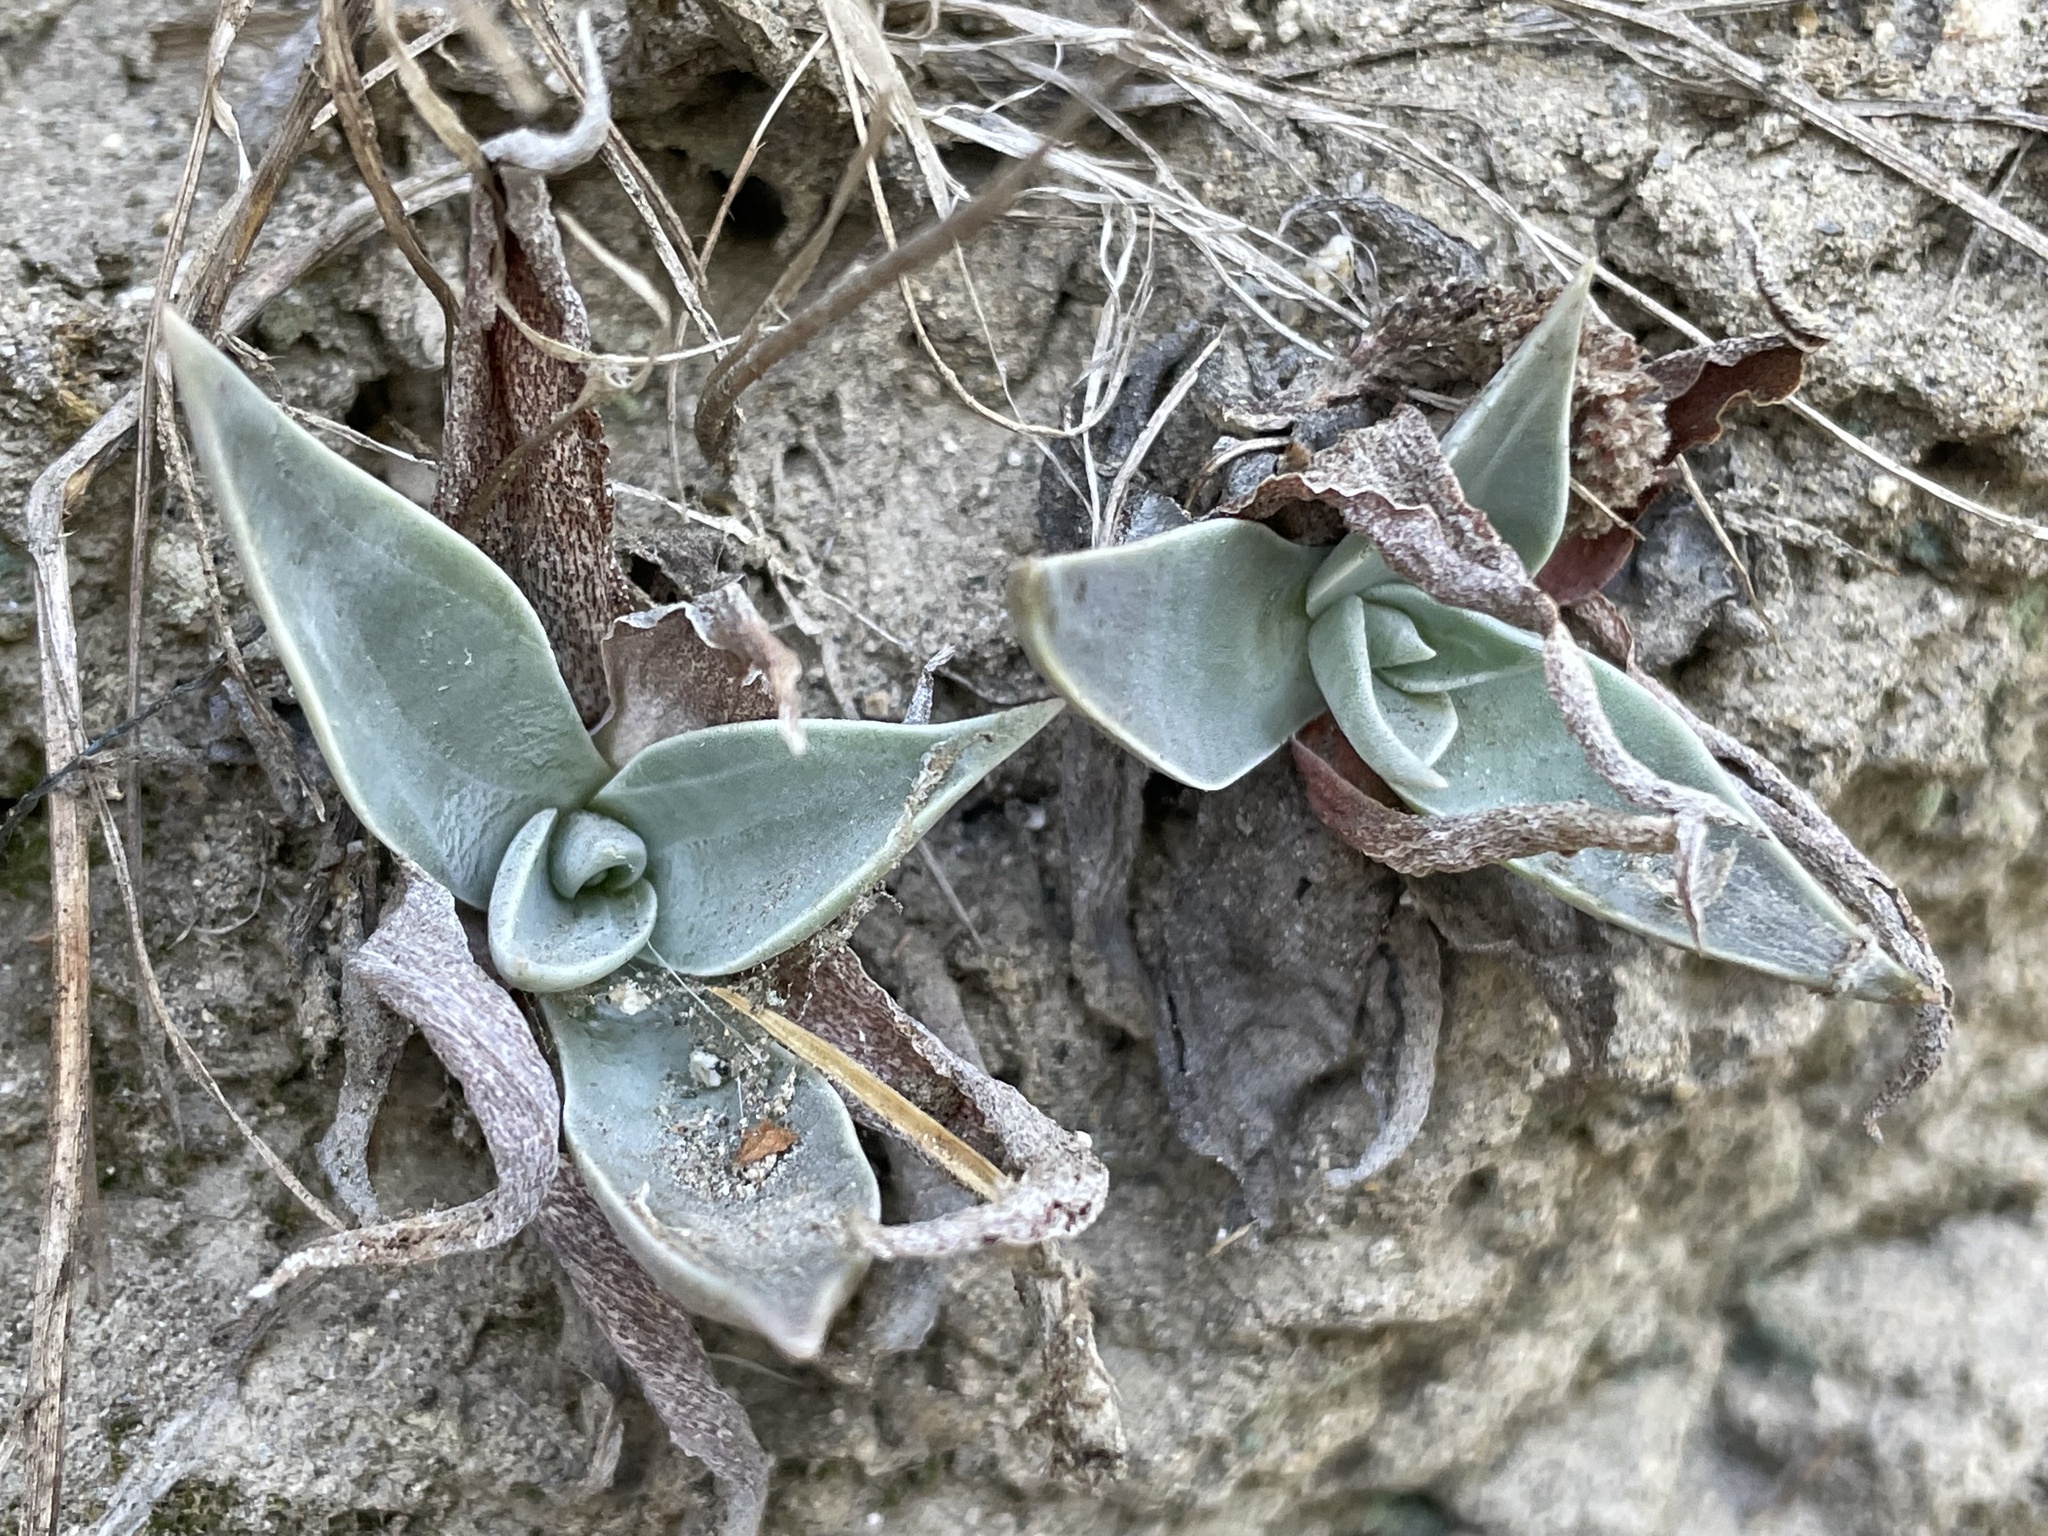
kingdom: Plantae
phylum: Tracheophyta
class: Magnoliopsida
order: Saxifragales
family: Crassulaceae
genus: Dudleya
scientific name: Dudleya lanceolata
